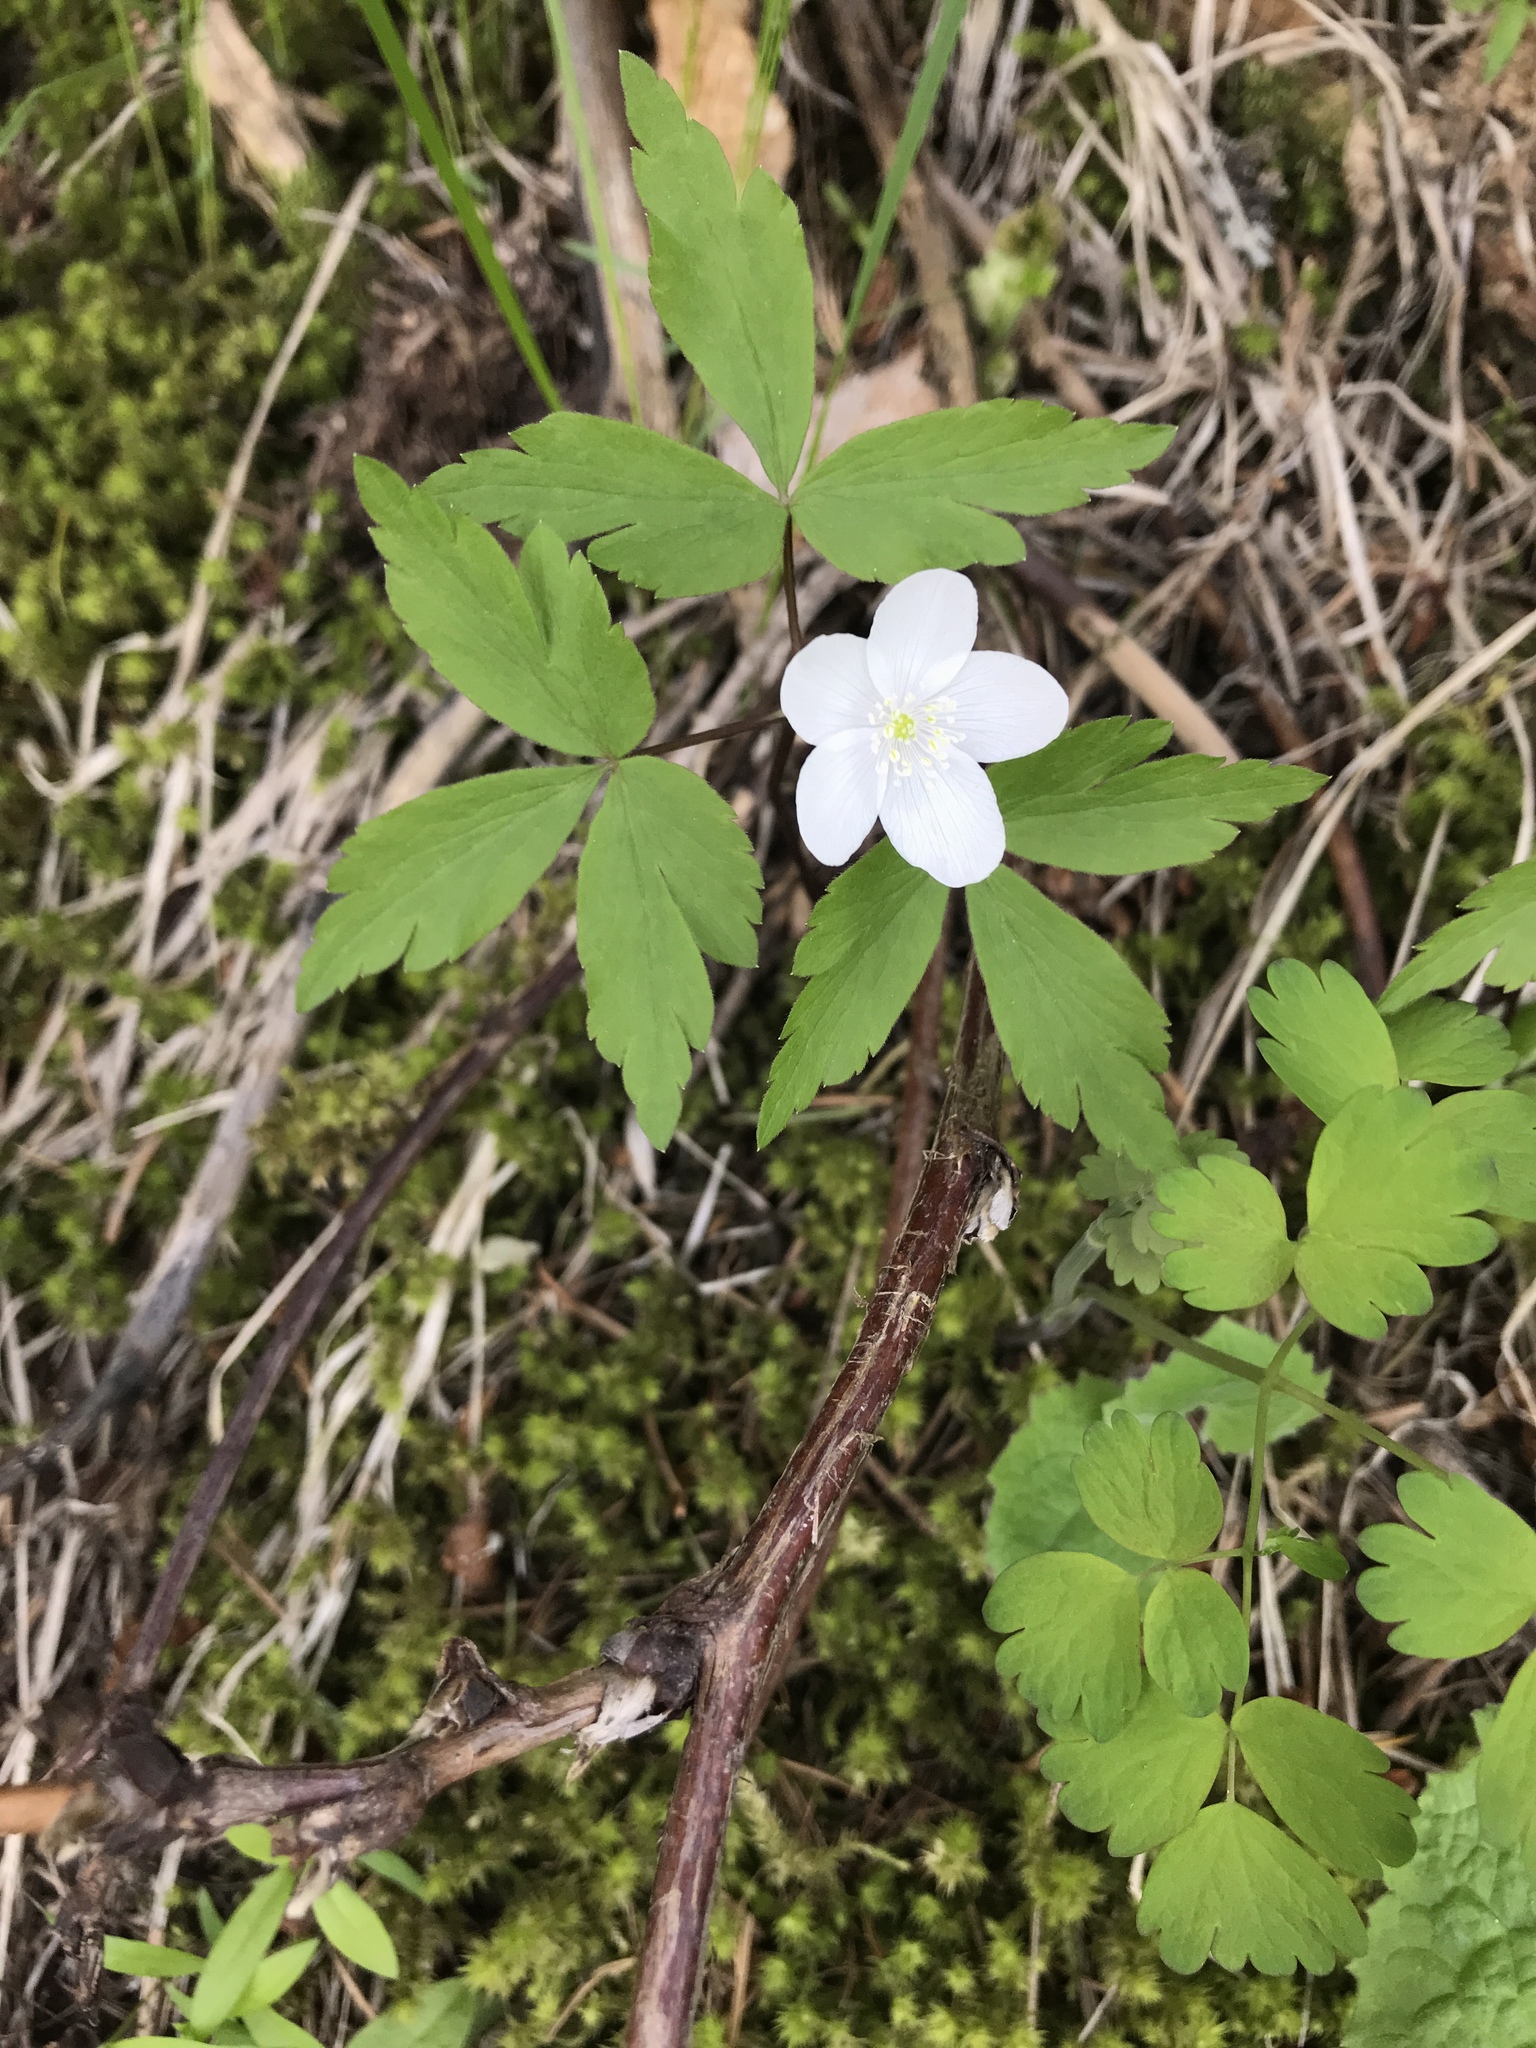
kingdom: Plantae
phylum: Tracheophyta
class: Magnoliopsida
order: Ranunculales
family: Ranunculaceae
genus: Anemone
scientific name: Anemone piperi
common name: Piper's anemone
